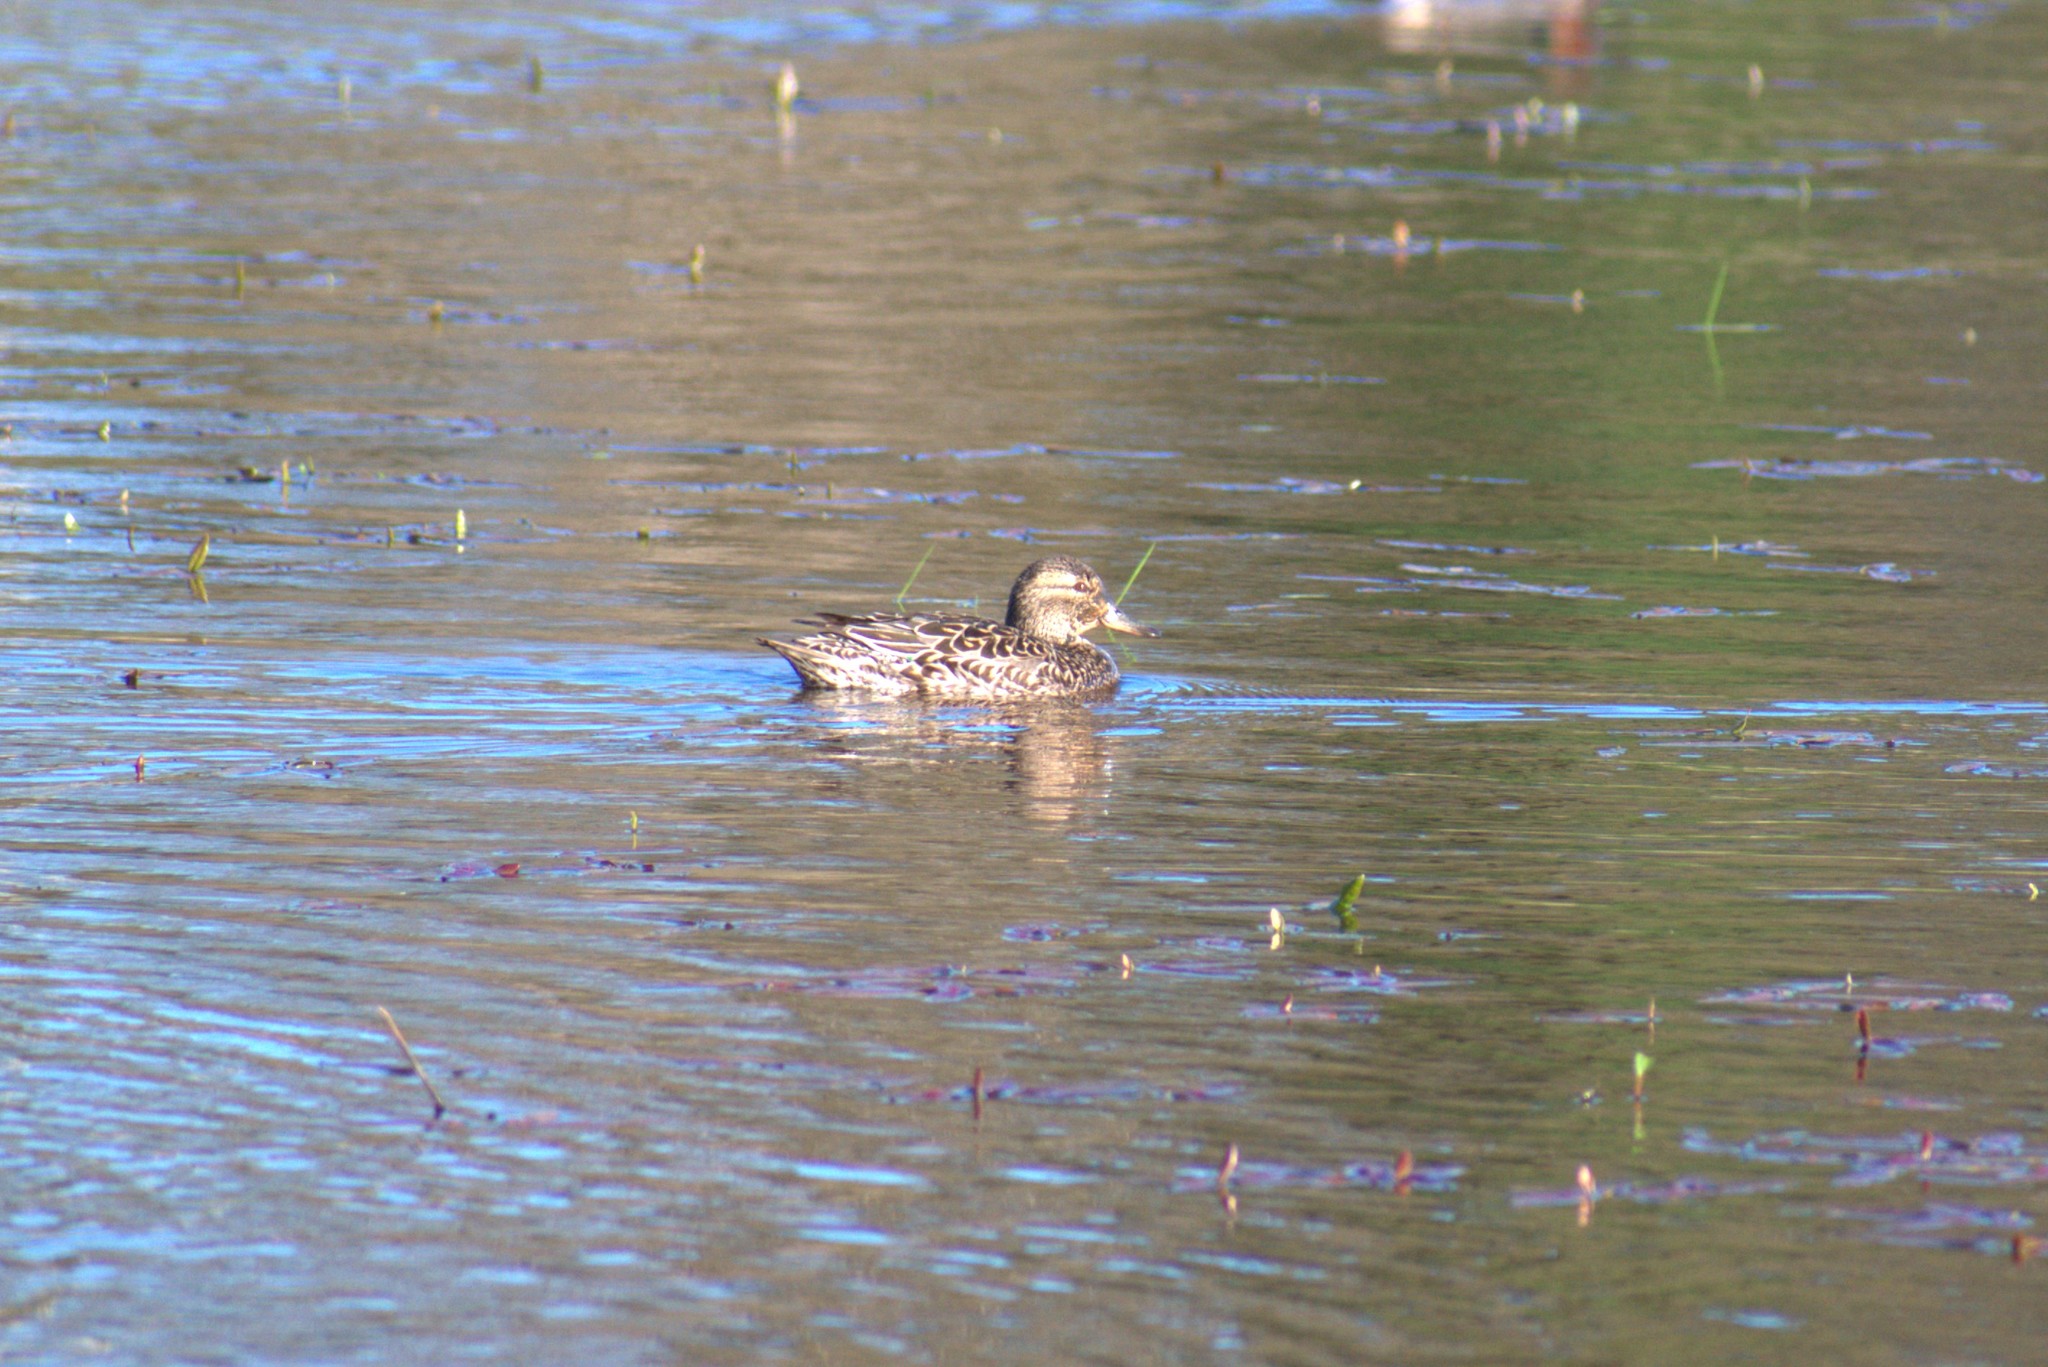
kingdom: Animalia
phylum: Chordata
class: Aves
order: Anseriformes
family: Anatidae
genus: Anas
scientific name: Anas crecca
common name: Eurasian teal
